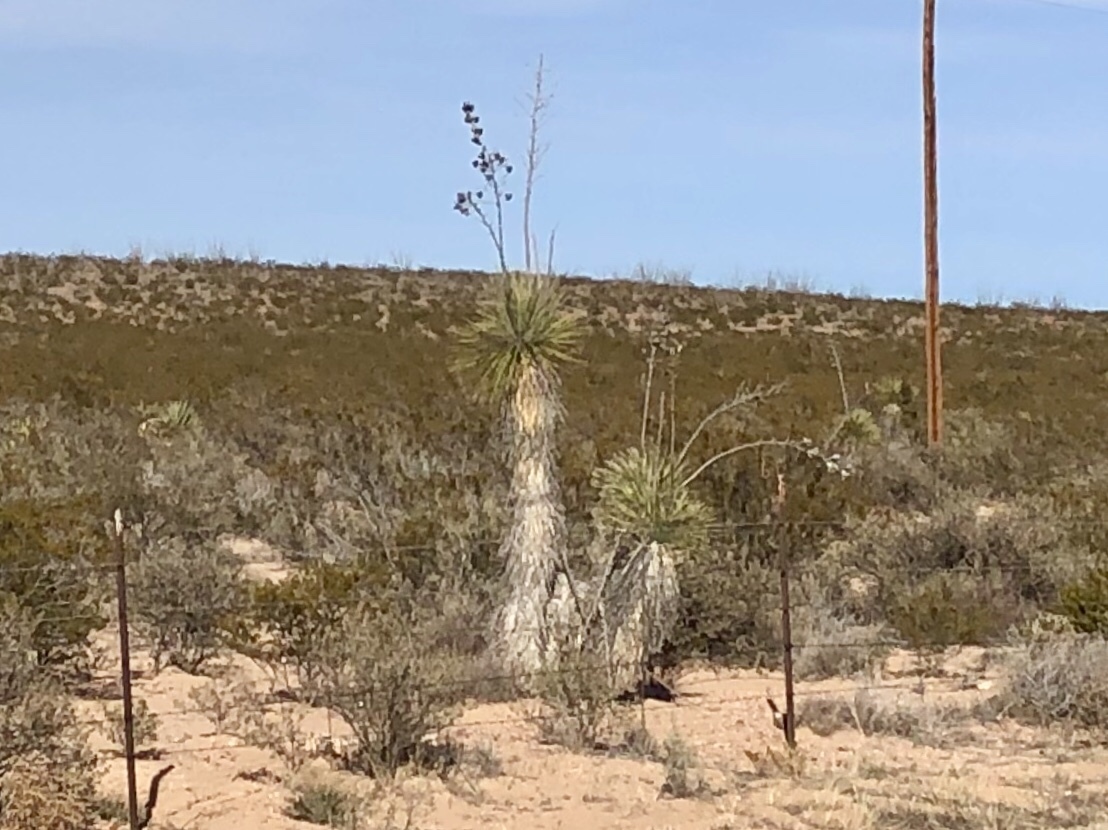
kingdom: Plantae
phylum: Tracheophyta
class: Liliopsida
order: Asparagales
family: Asparagaceae
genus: Yucca
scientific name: Yucca elata
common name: Palmella
